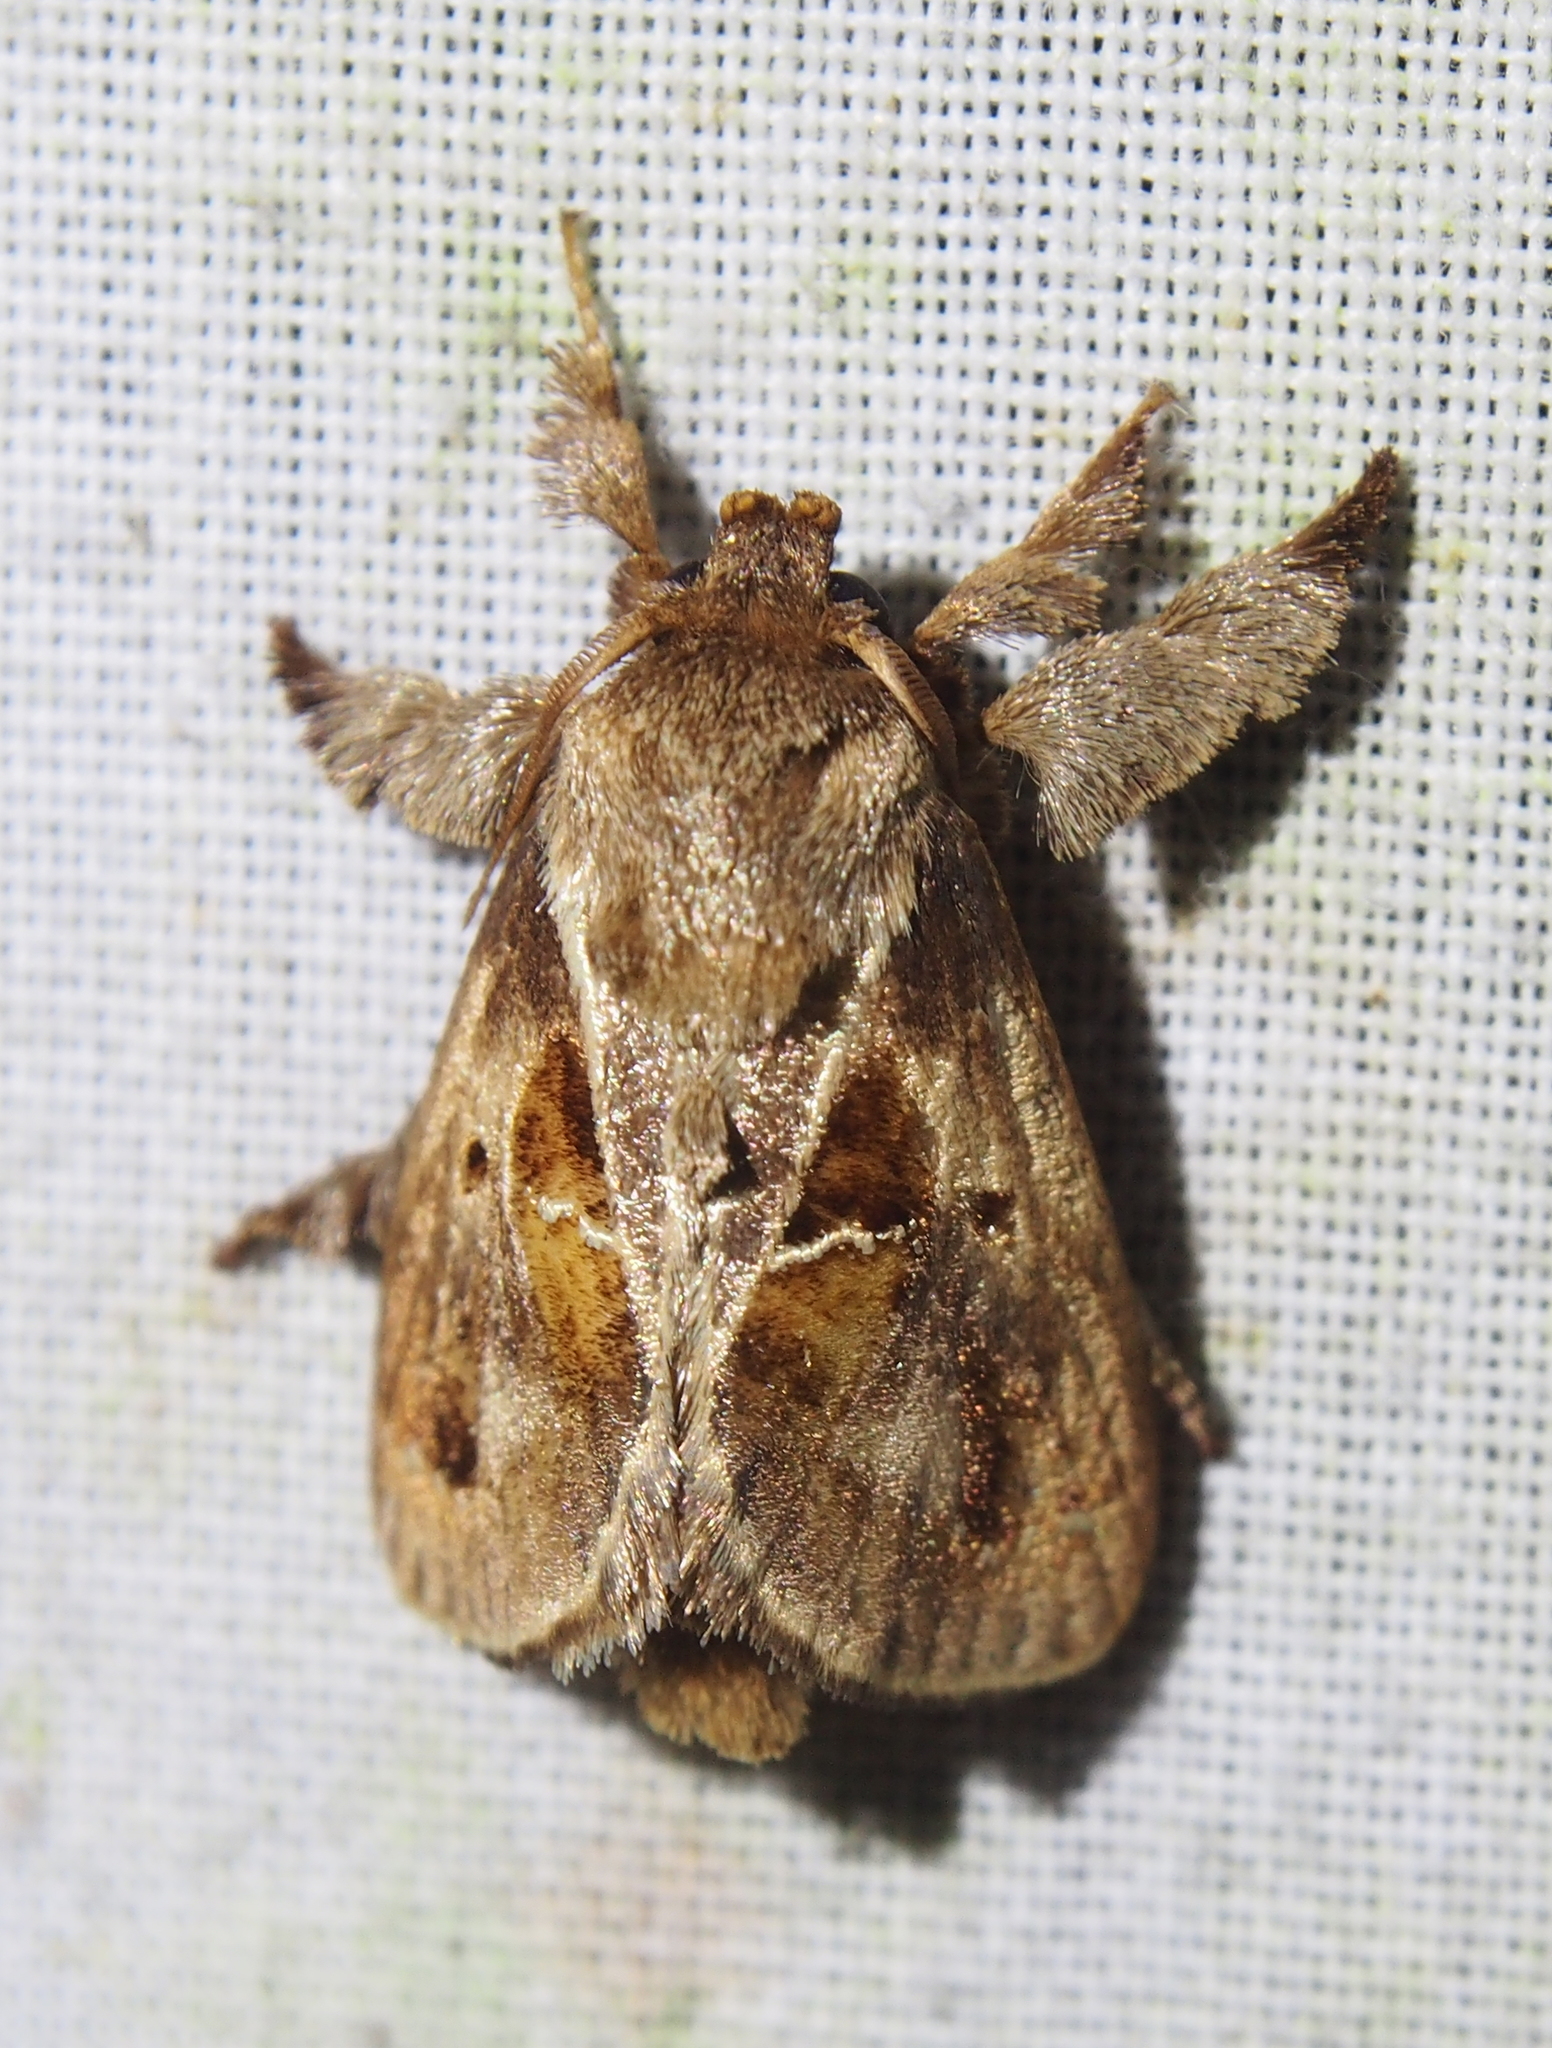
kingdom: Animalia
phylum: Arthropoda
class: Insecta
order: Lepidoptera
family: Limacodidae
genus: Euclea
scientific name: Euclea distrahens
